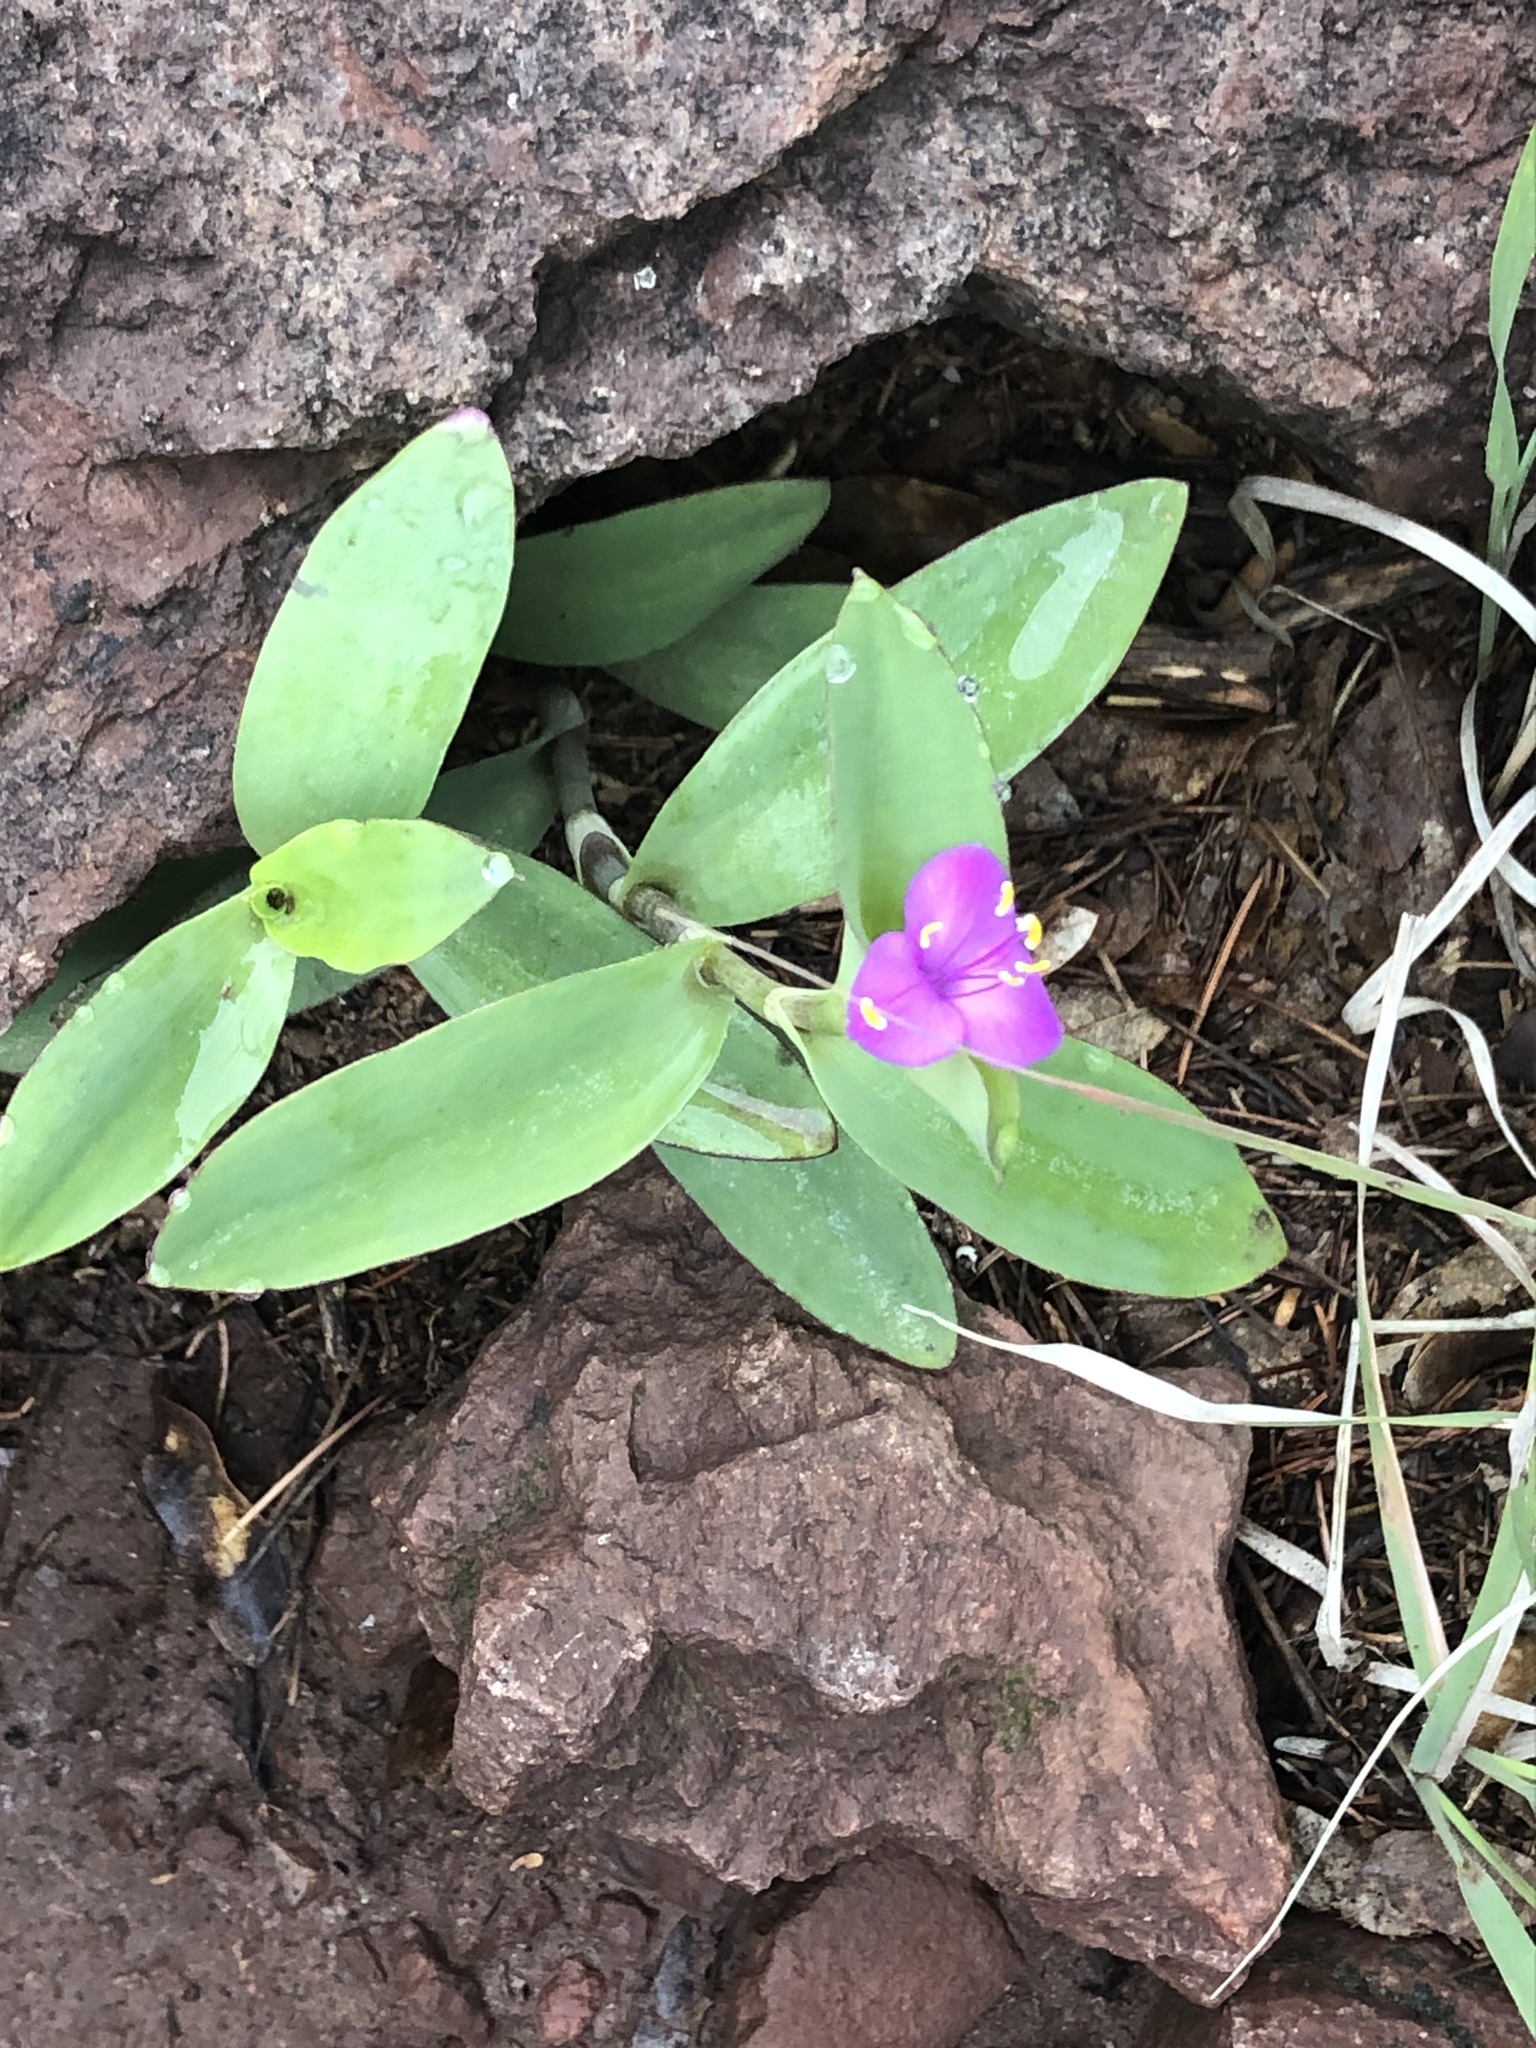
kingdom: Plantae
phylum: Tracheophyta
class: Liliopsida
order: Commelinales
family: Commelinaceae
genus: Tradescantia
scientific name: Tradescantia brevifolia
